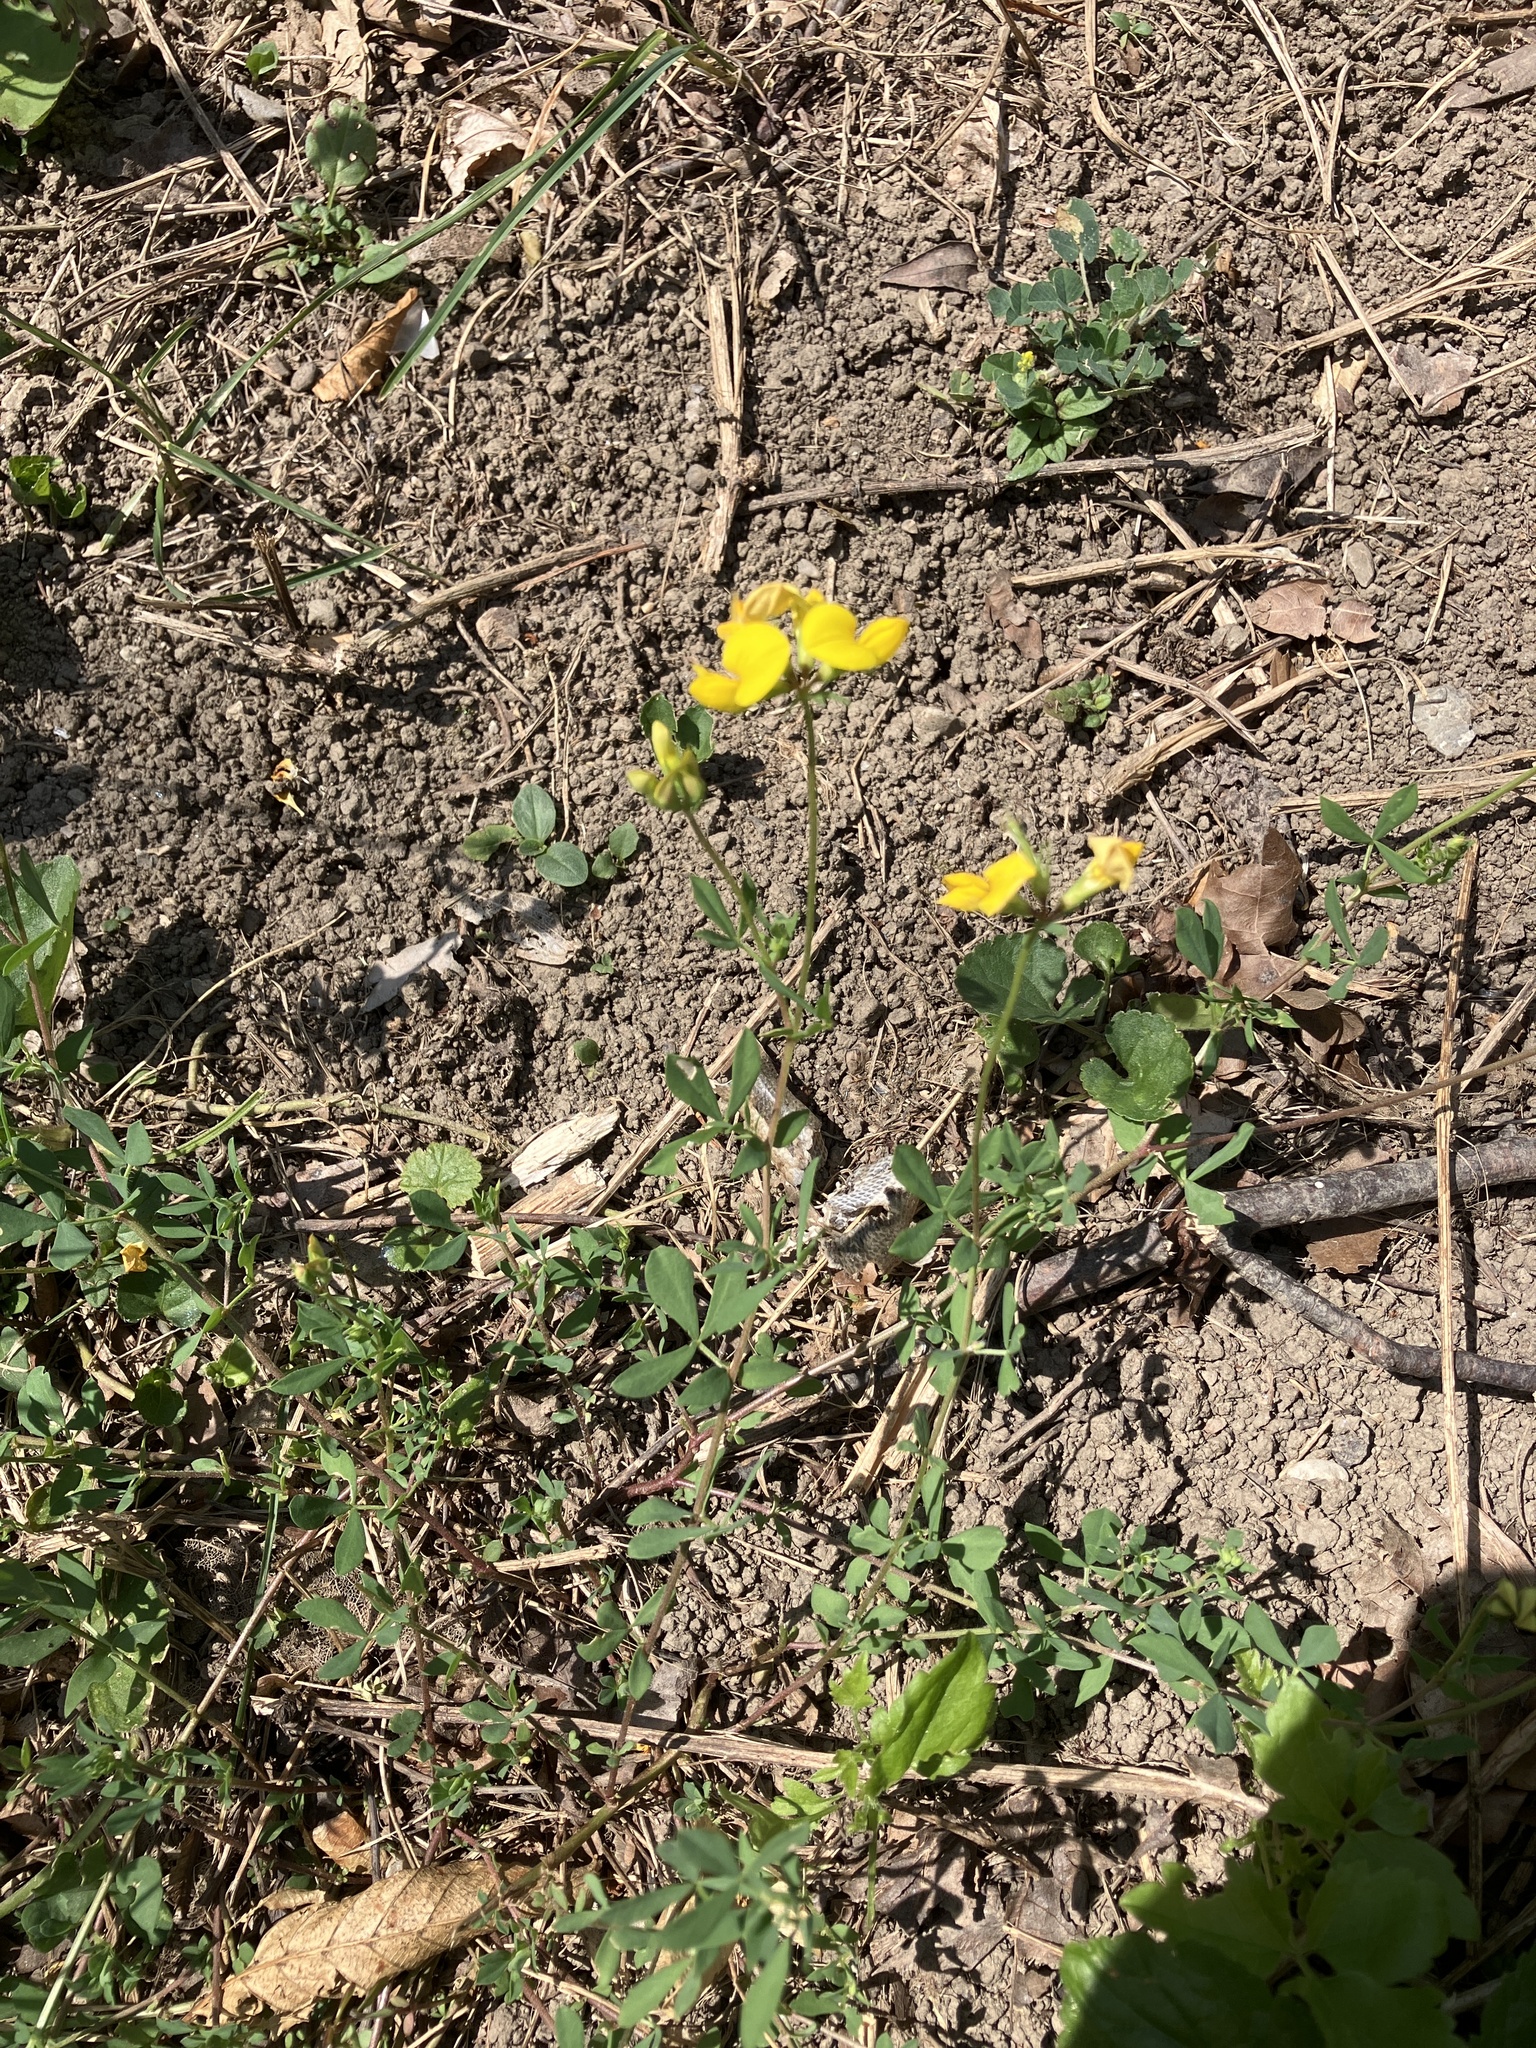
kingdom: Plantae
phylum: Tracheophyta
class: Magnoliopsida
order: Fabales
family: Fabaceae
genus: Lotus
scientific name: Lotus corniculatus
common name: Common bird's-foot-trefoil
